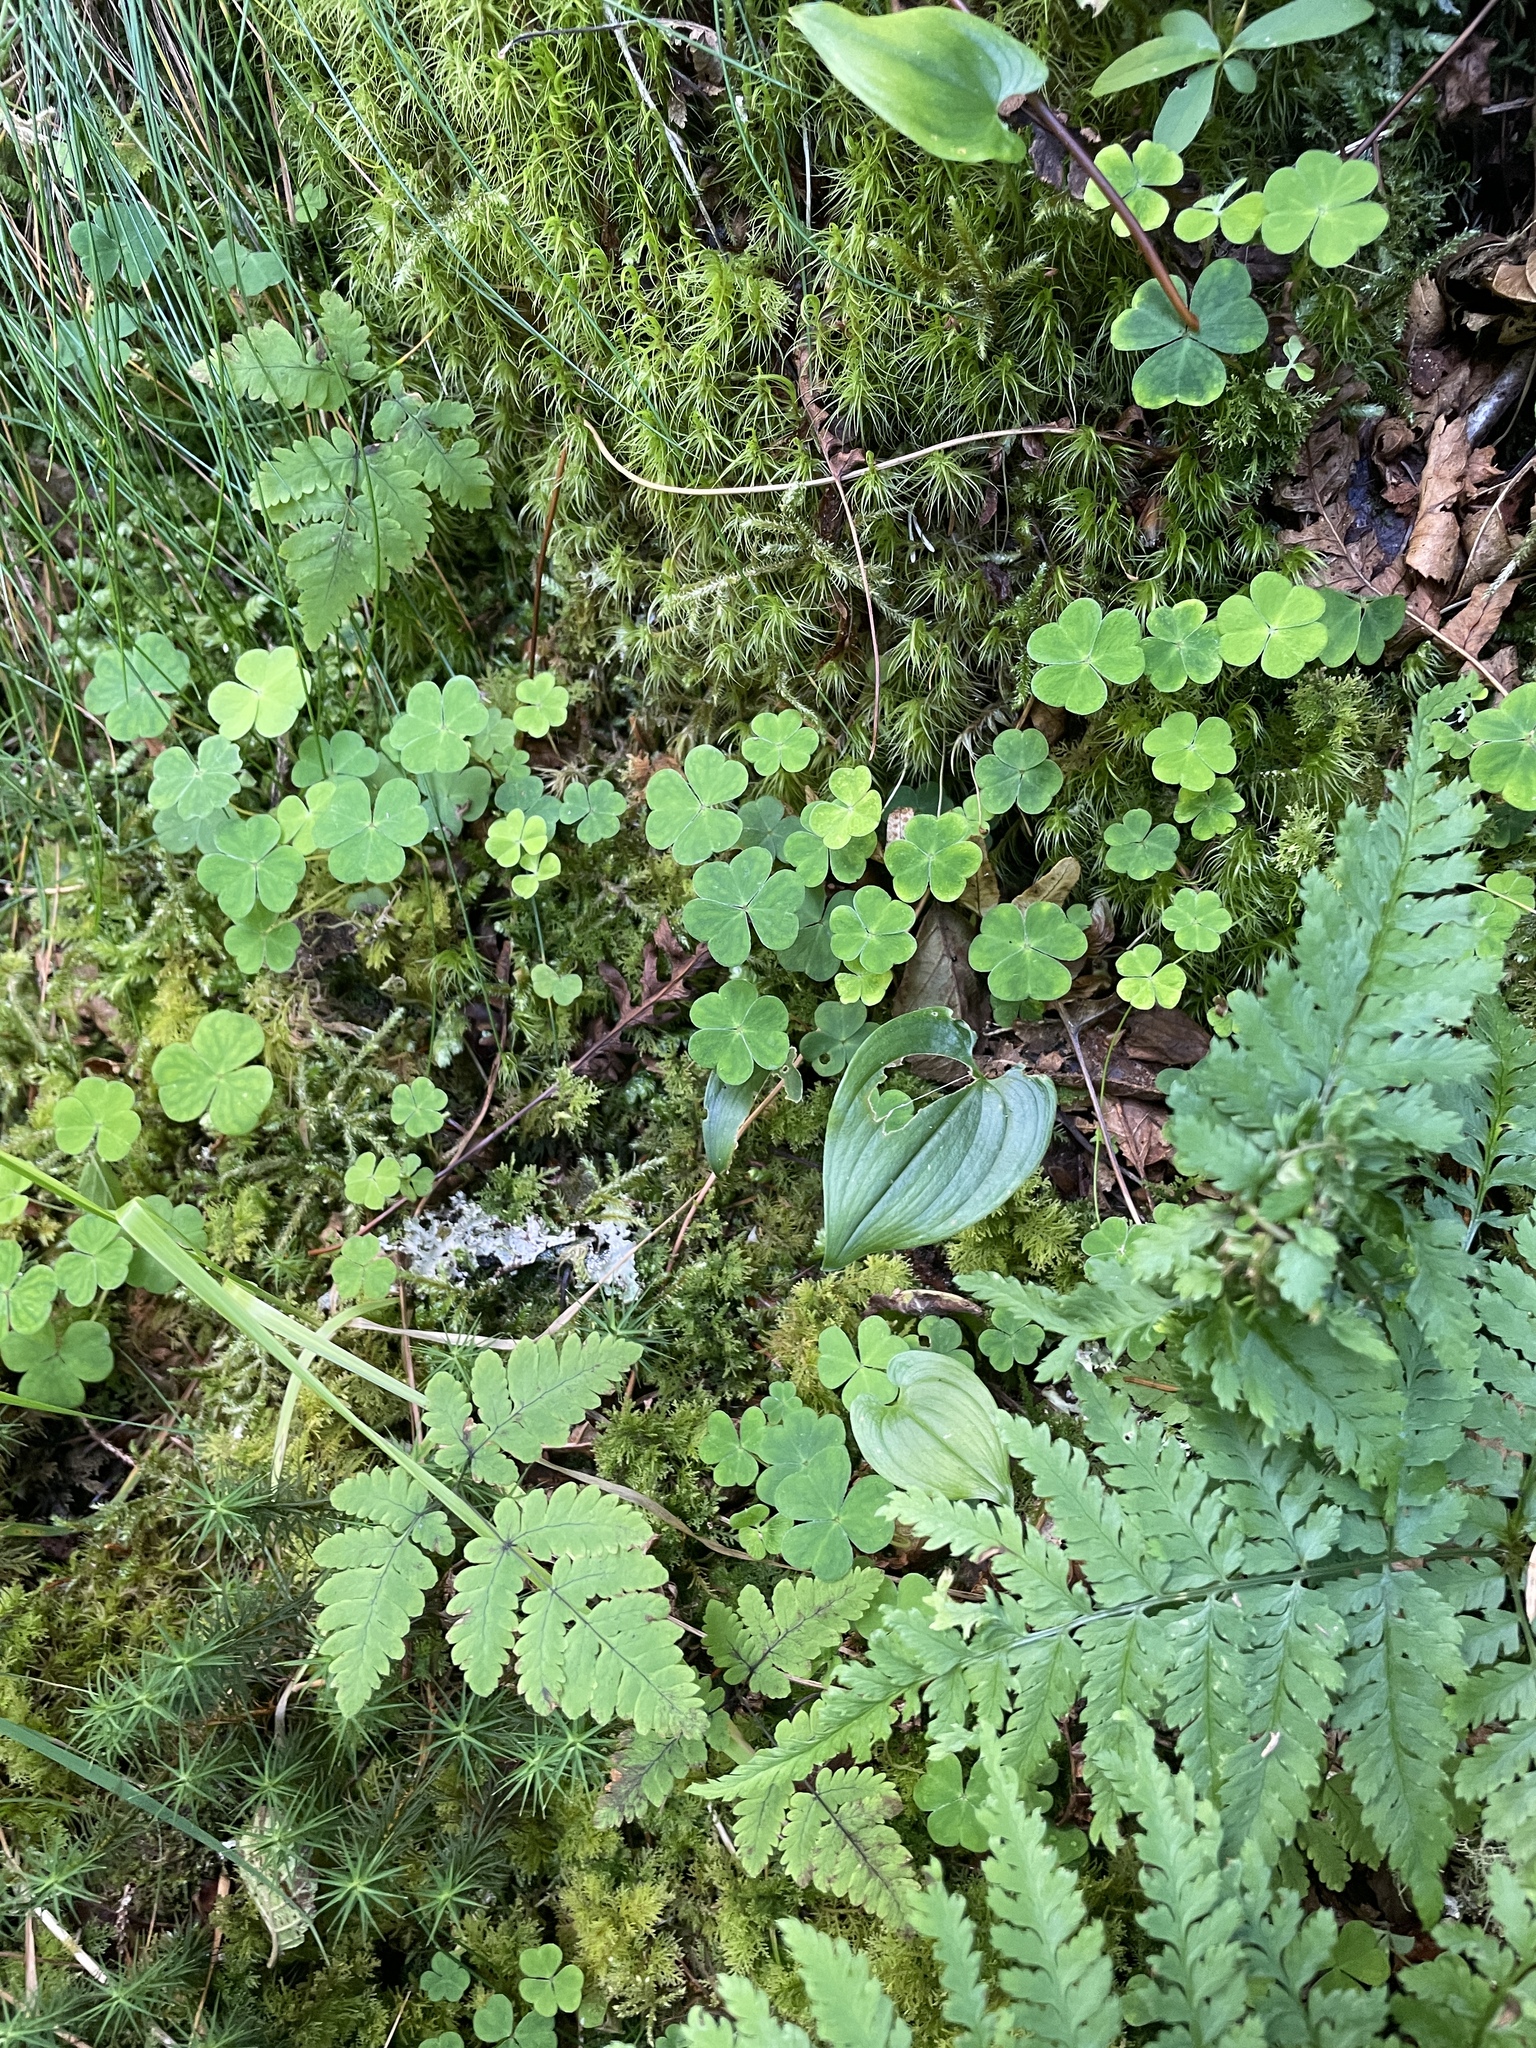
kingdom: Plantae
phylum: Tracheophyta
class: Liliopsida
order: Asparagales
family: Asparagaceae
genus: Maianthemum
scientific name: Maianthemum bifolium
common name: May lily
